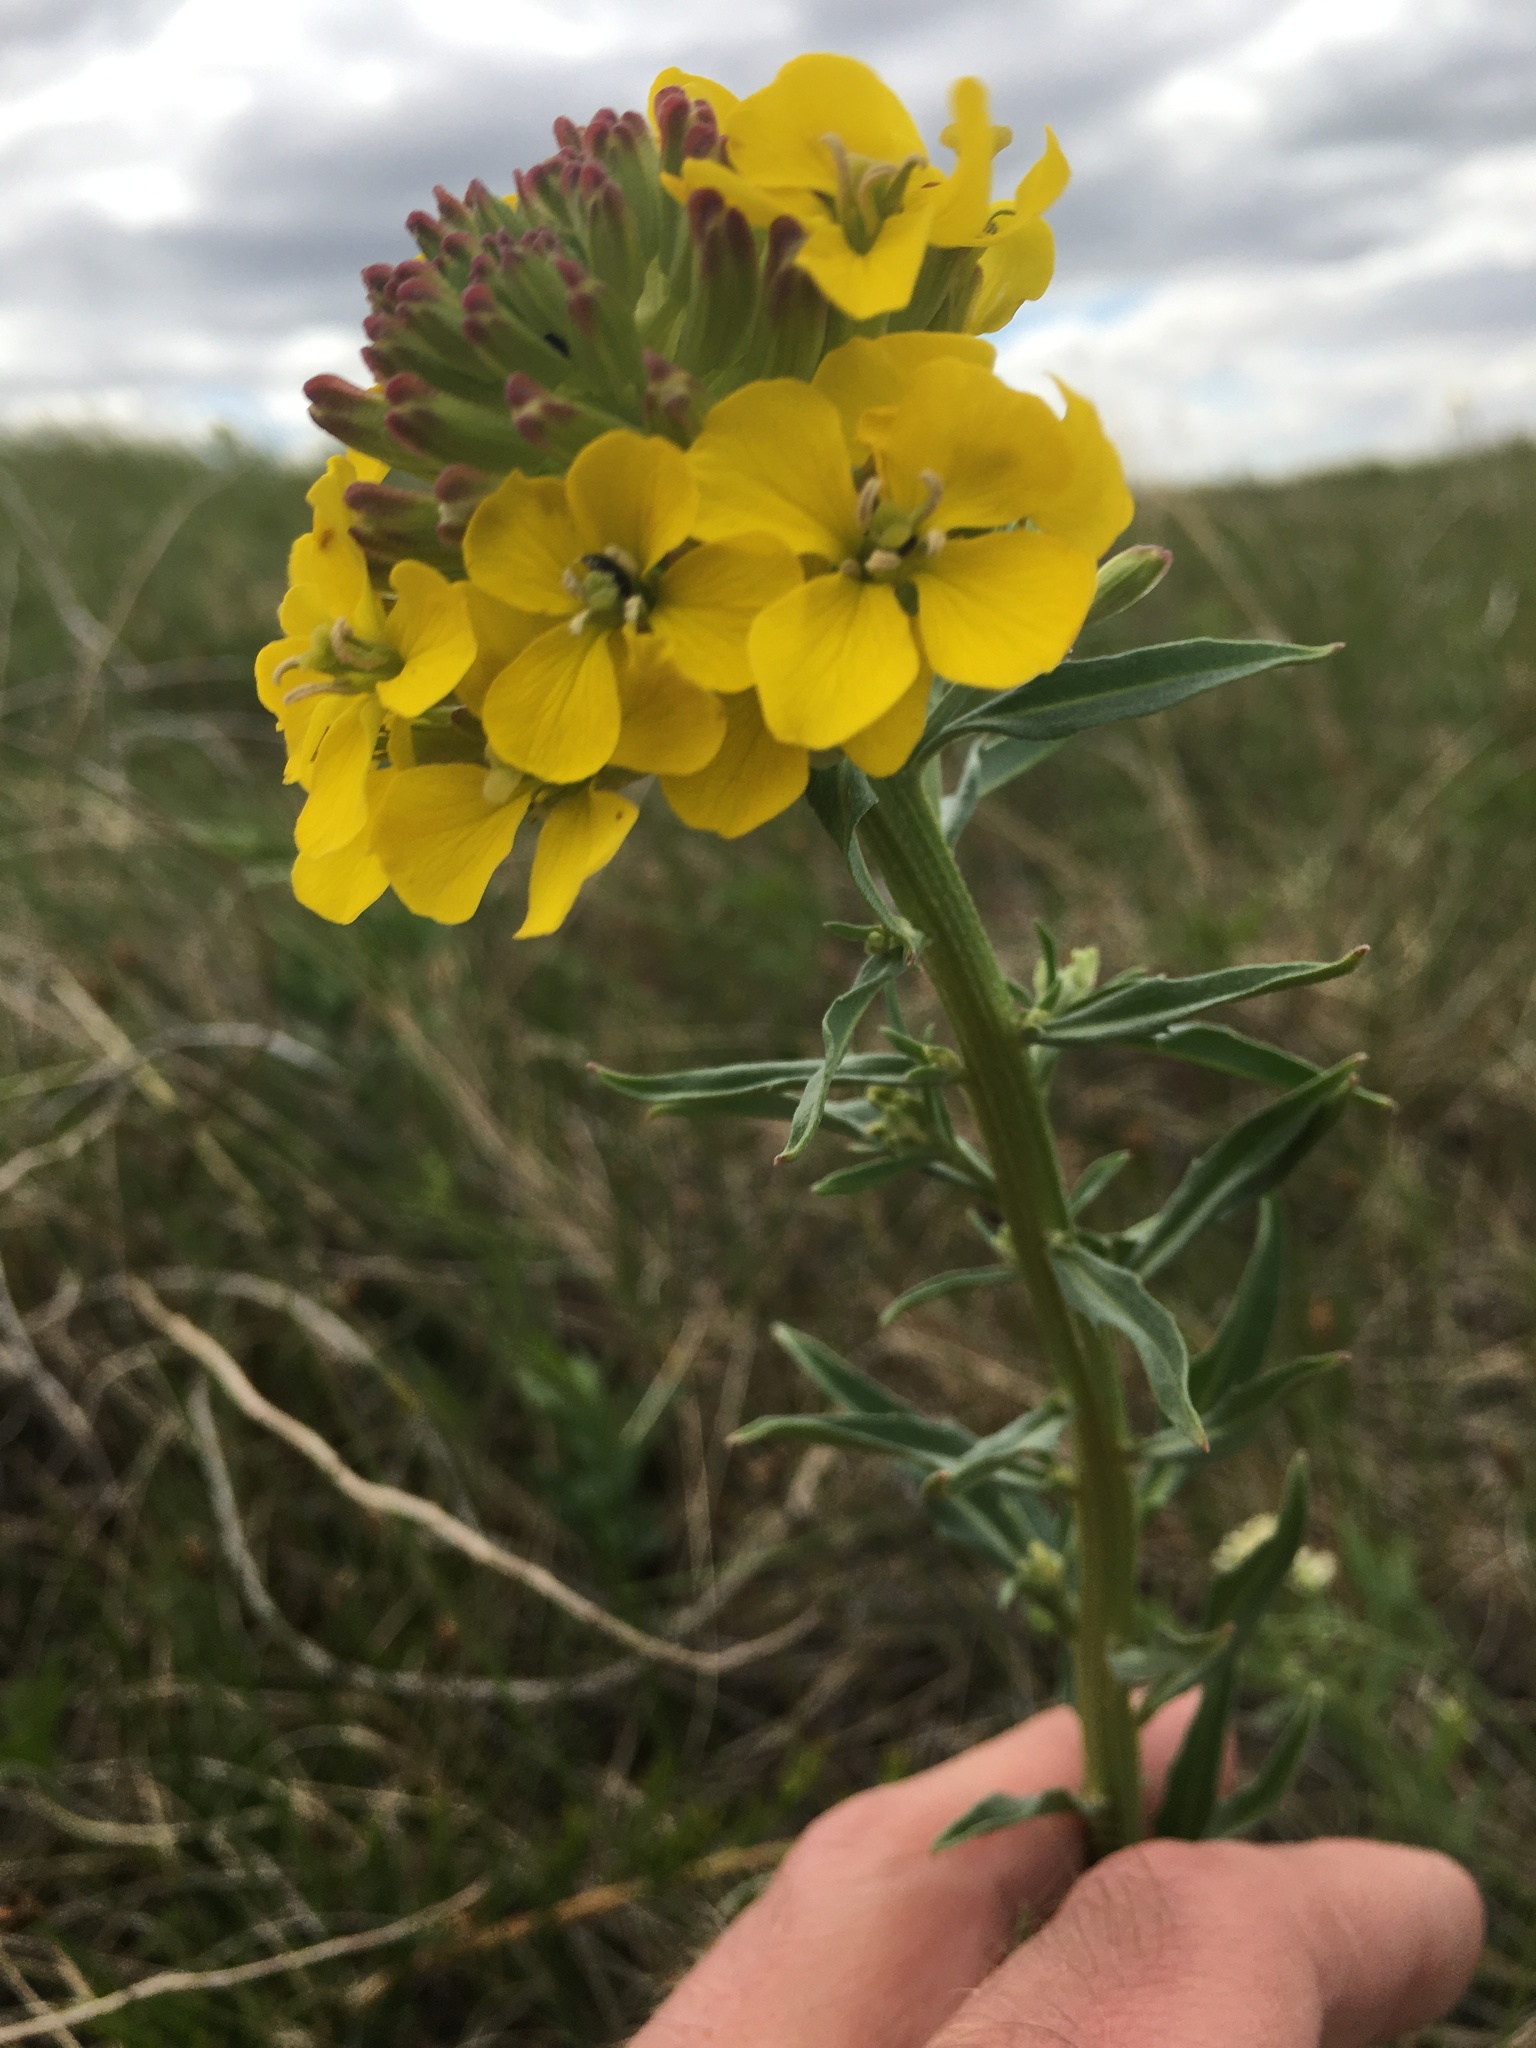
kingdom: Plantae
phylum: Tracheophyta
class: Magnoliopsida
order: Brassicales
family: Brassicaceae
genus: Erysimum
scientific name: Erysimum asperum
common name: Western wallflower
